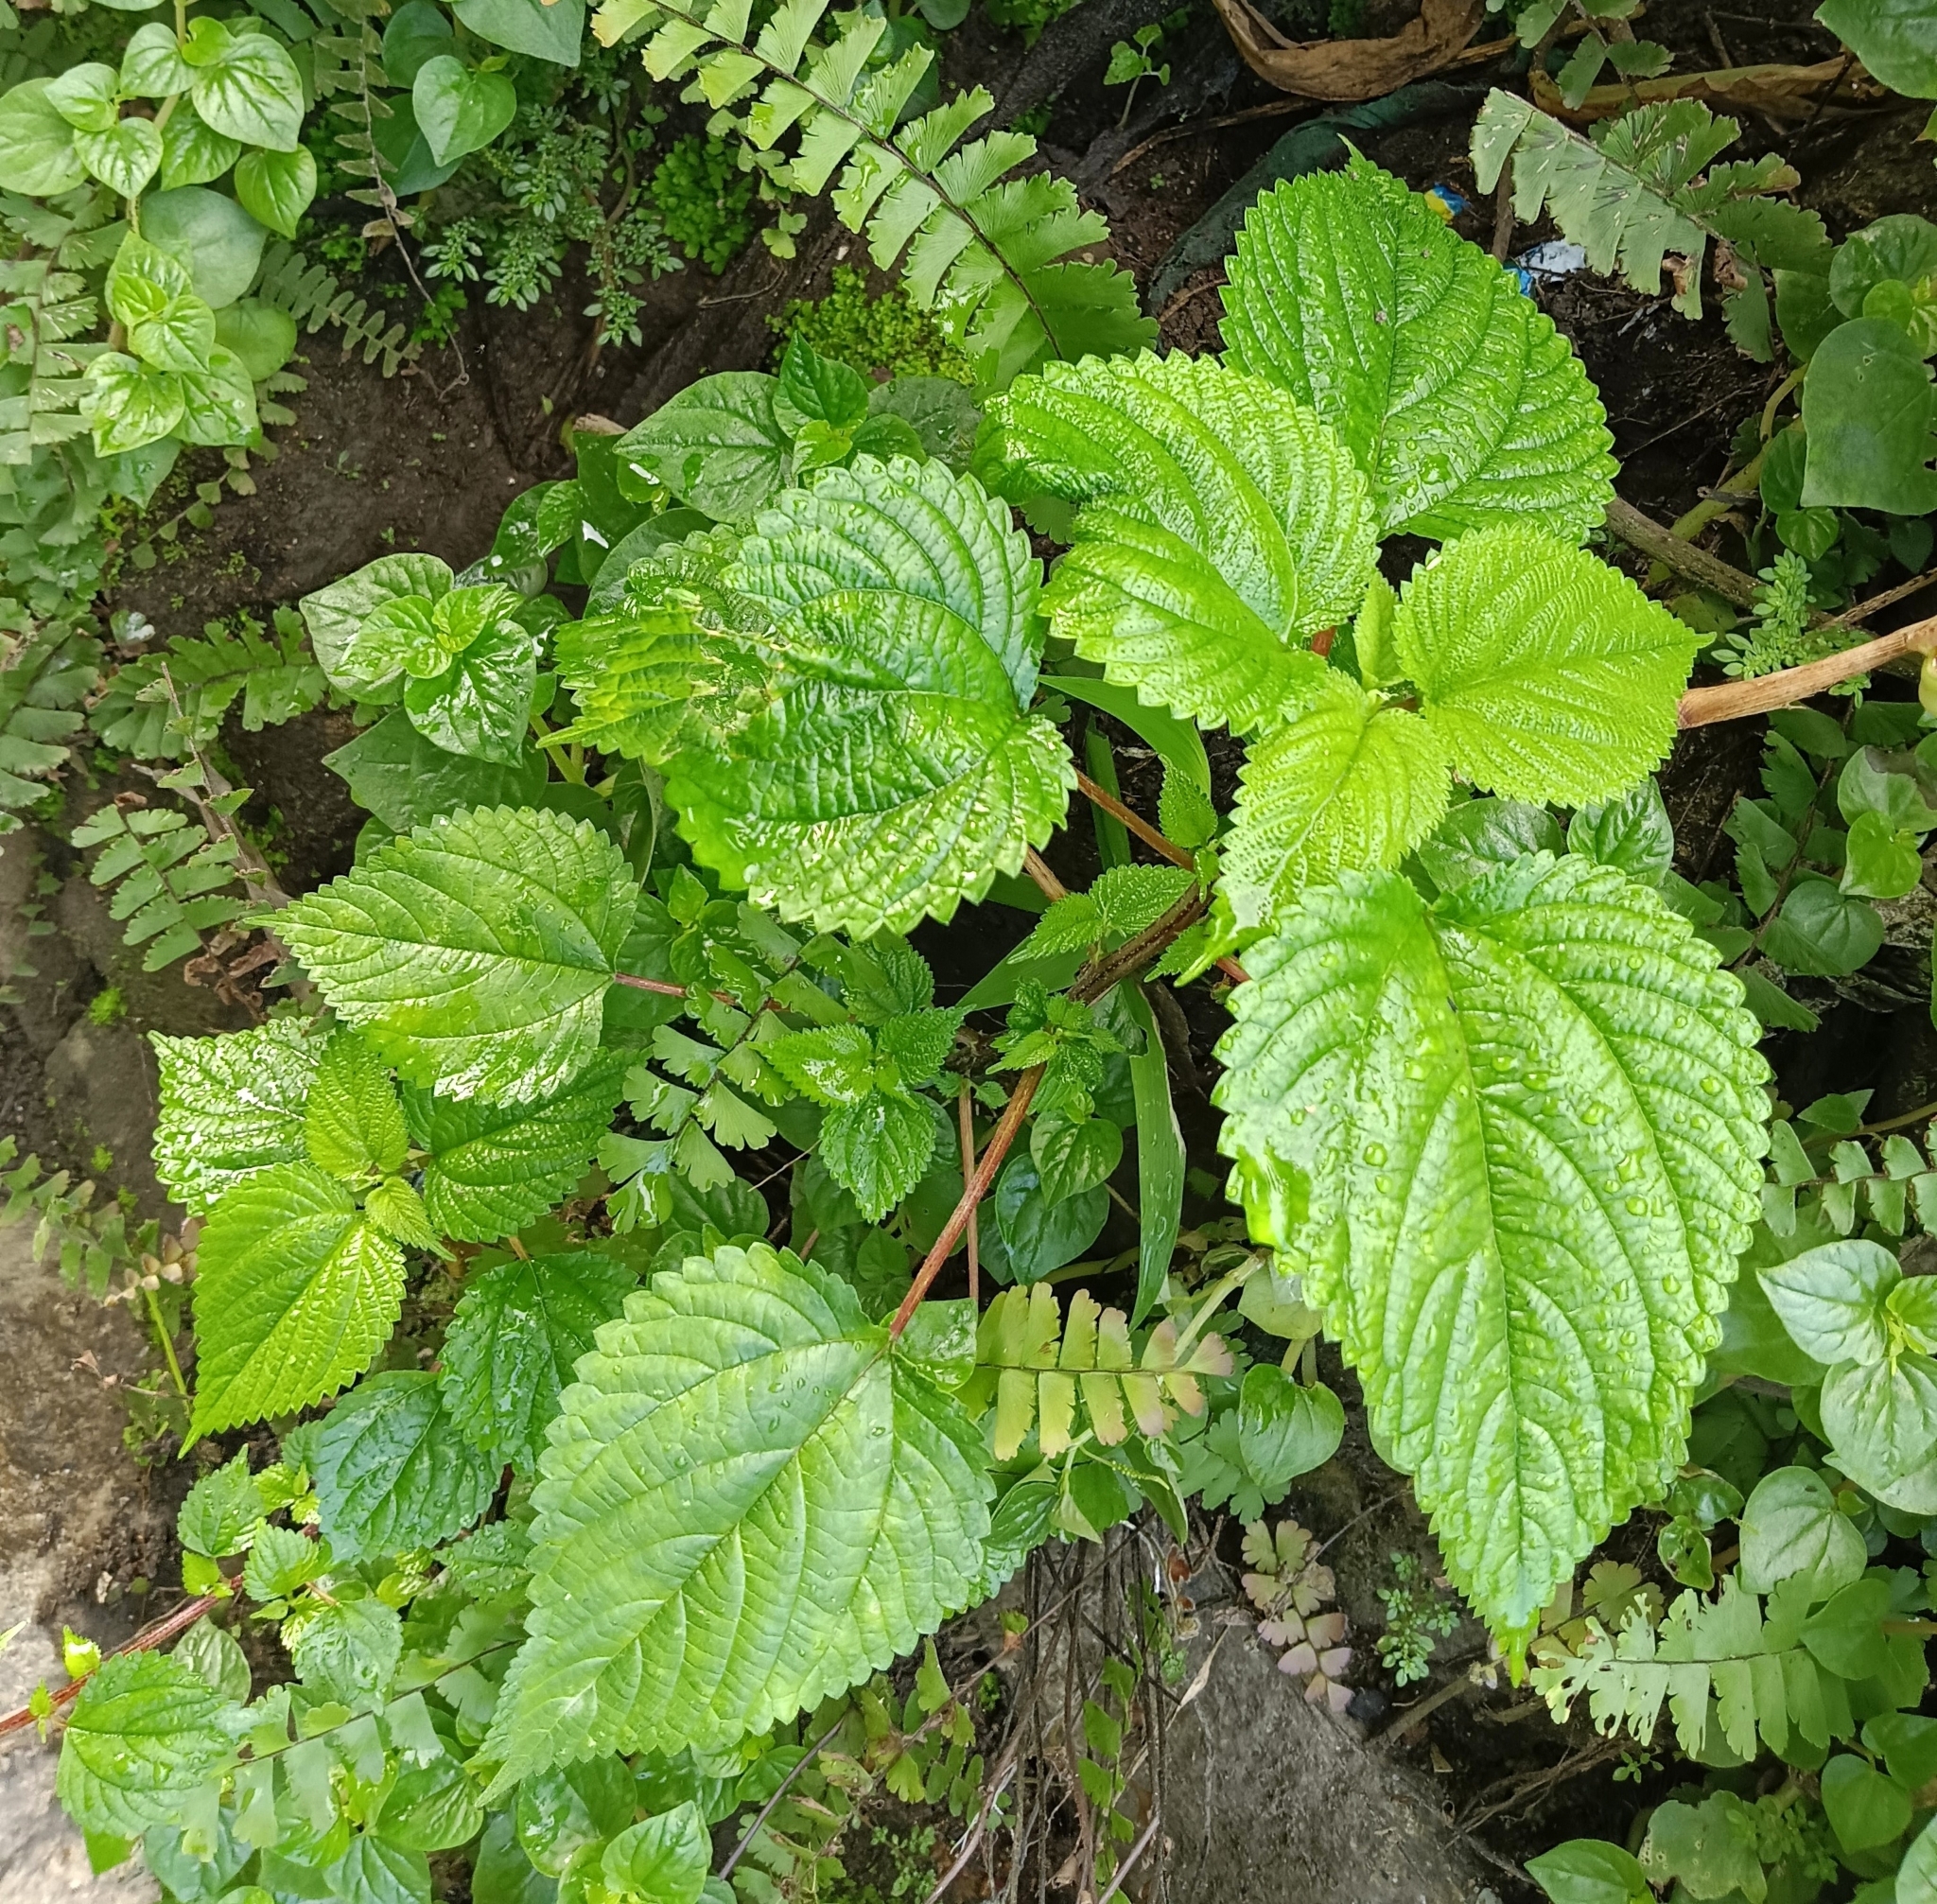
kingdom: Plantae
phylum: Tracheophyta
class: Magnoliopsida
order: Rosales
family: Urticaceae
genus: Laportea
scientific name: Laportea aestuans
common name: West indian woodnettle
